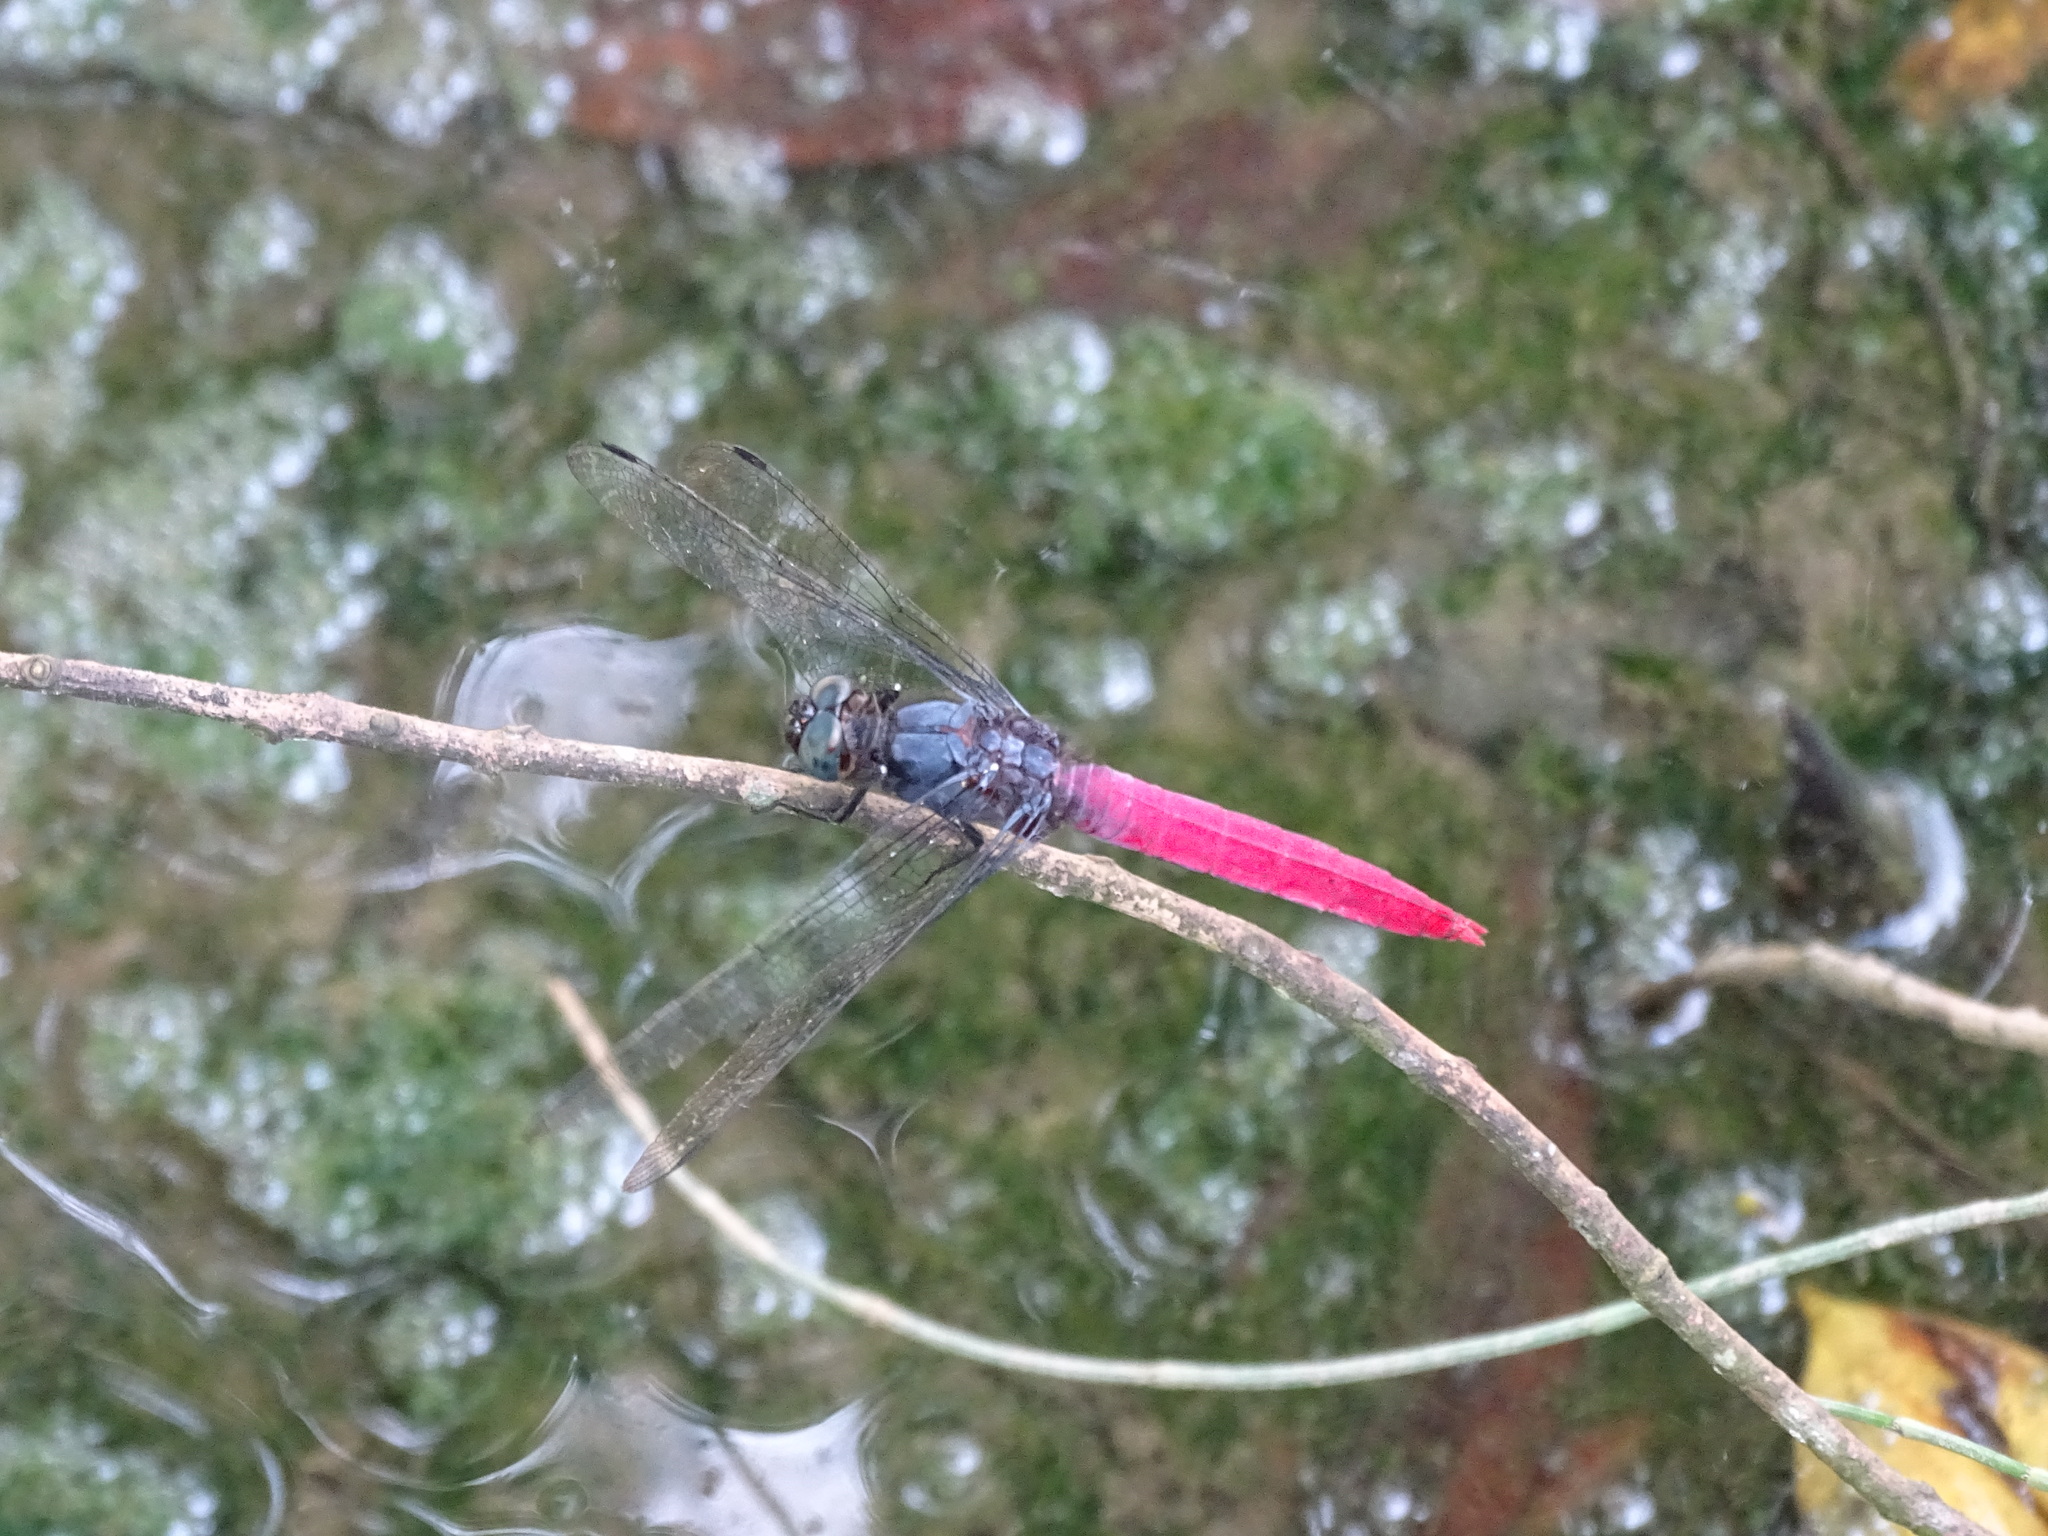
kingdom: Animalia
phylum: Arthropoda
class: Insecta
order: Odonata
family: Libellulidae
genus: Orthetrum
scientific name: Orthetrum pruinosum
